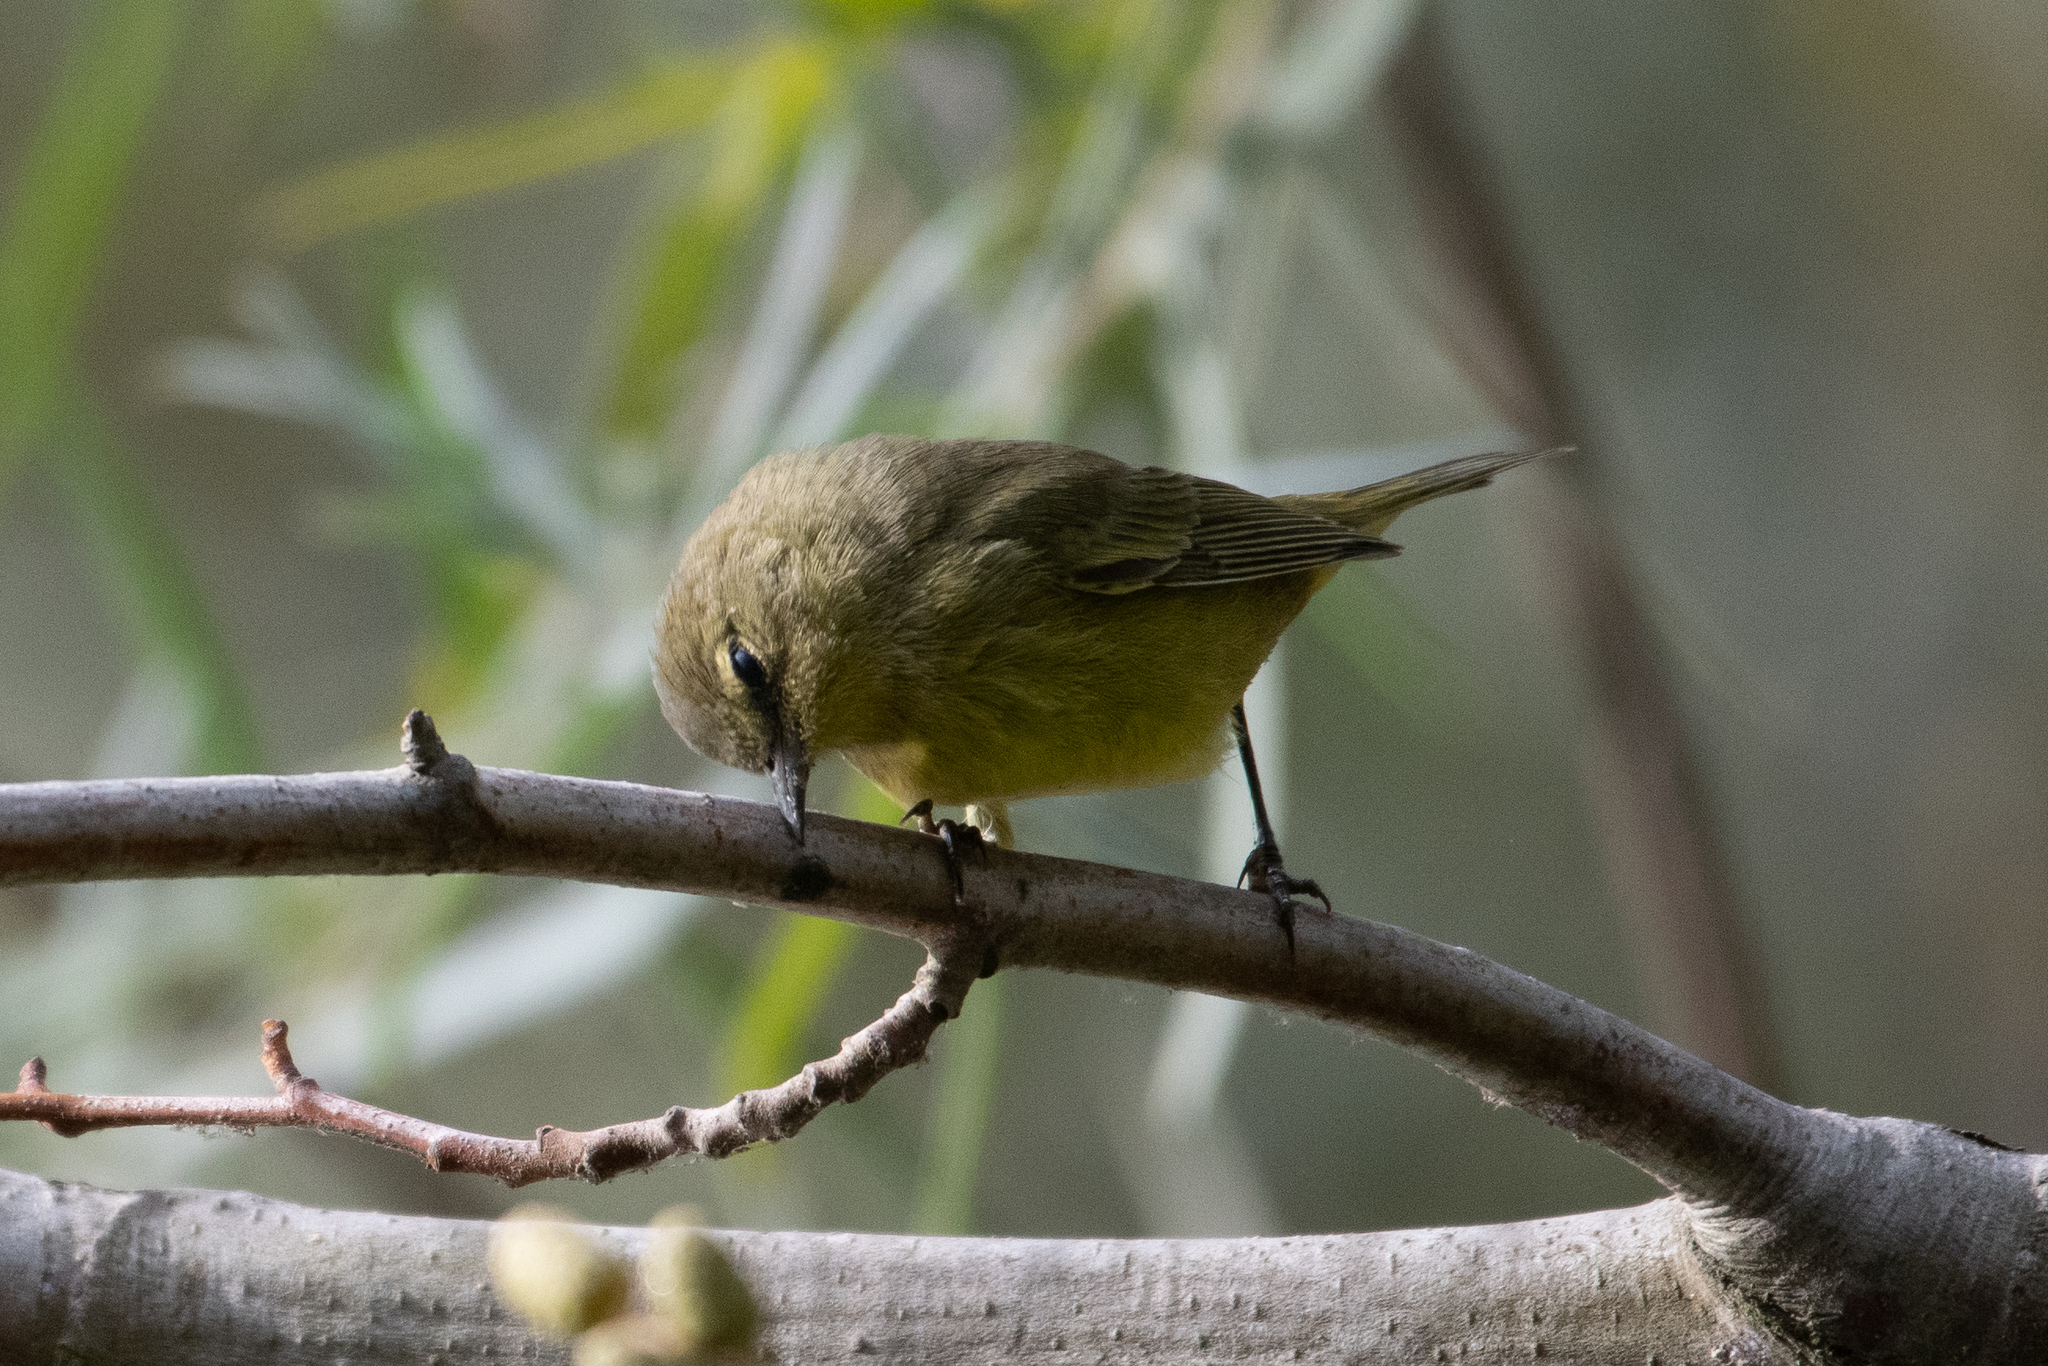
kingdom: Animalia
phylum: Chordata
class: Aves
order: Passeriformes
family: Parulidae
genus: Leiothlypis
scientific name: Leiothlypis celata
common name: Orange-crowned warbler
